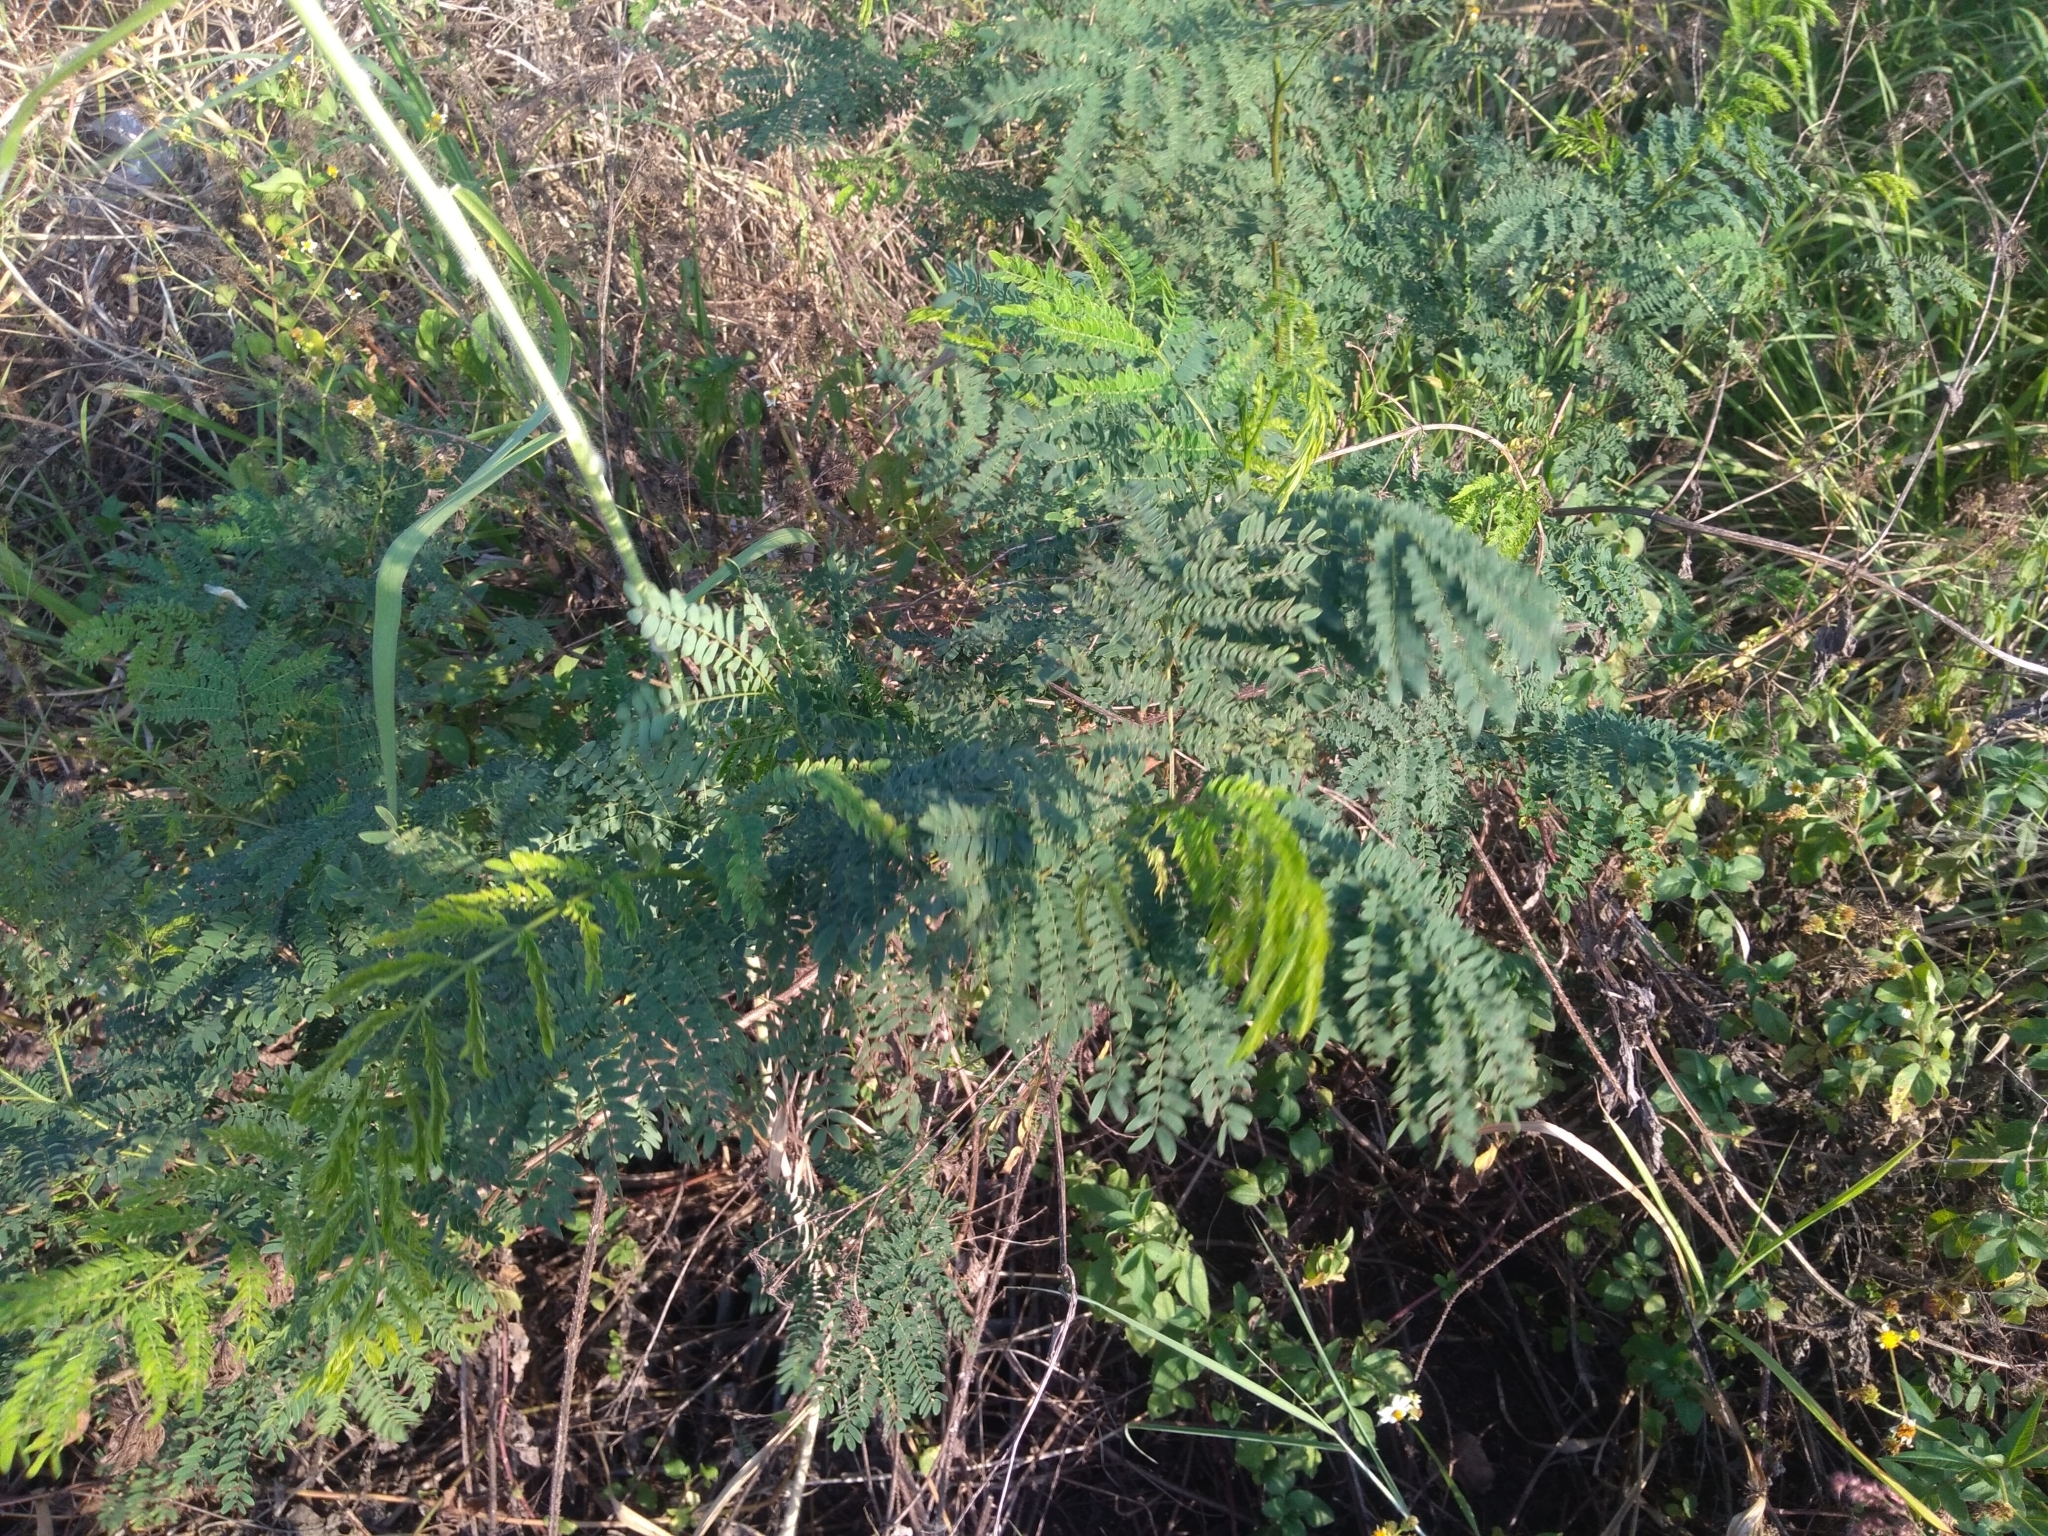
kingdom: Plantae
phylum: Tracheophyta
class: Magnoliopsida
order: Fabales
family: Fabaceae
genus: Leucaena
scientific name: Leucaena leucocephala
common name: White leadtree
